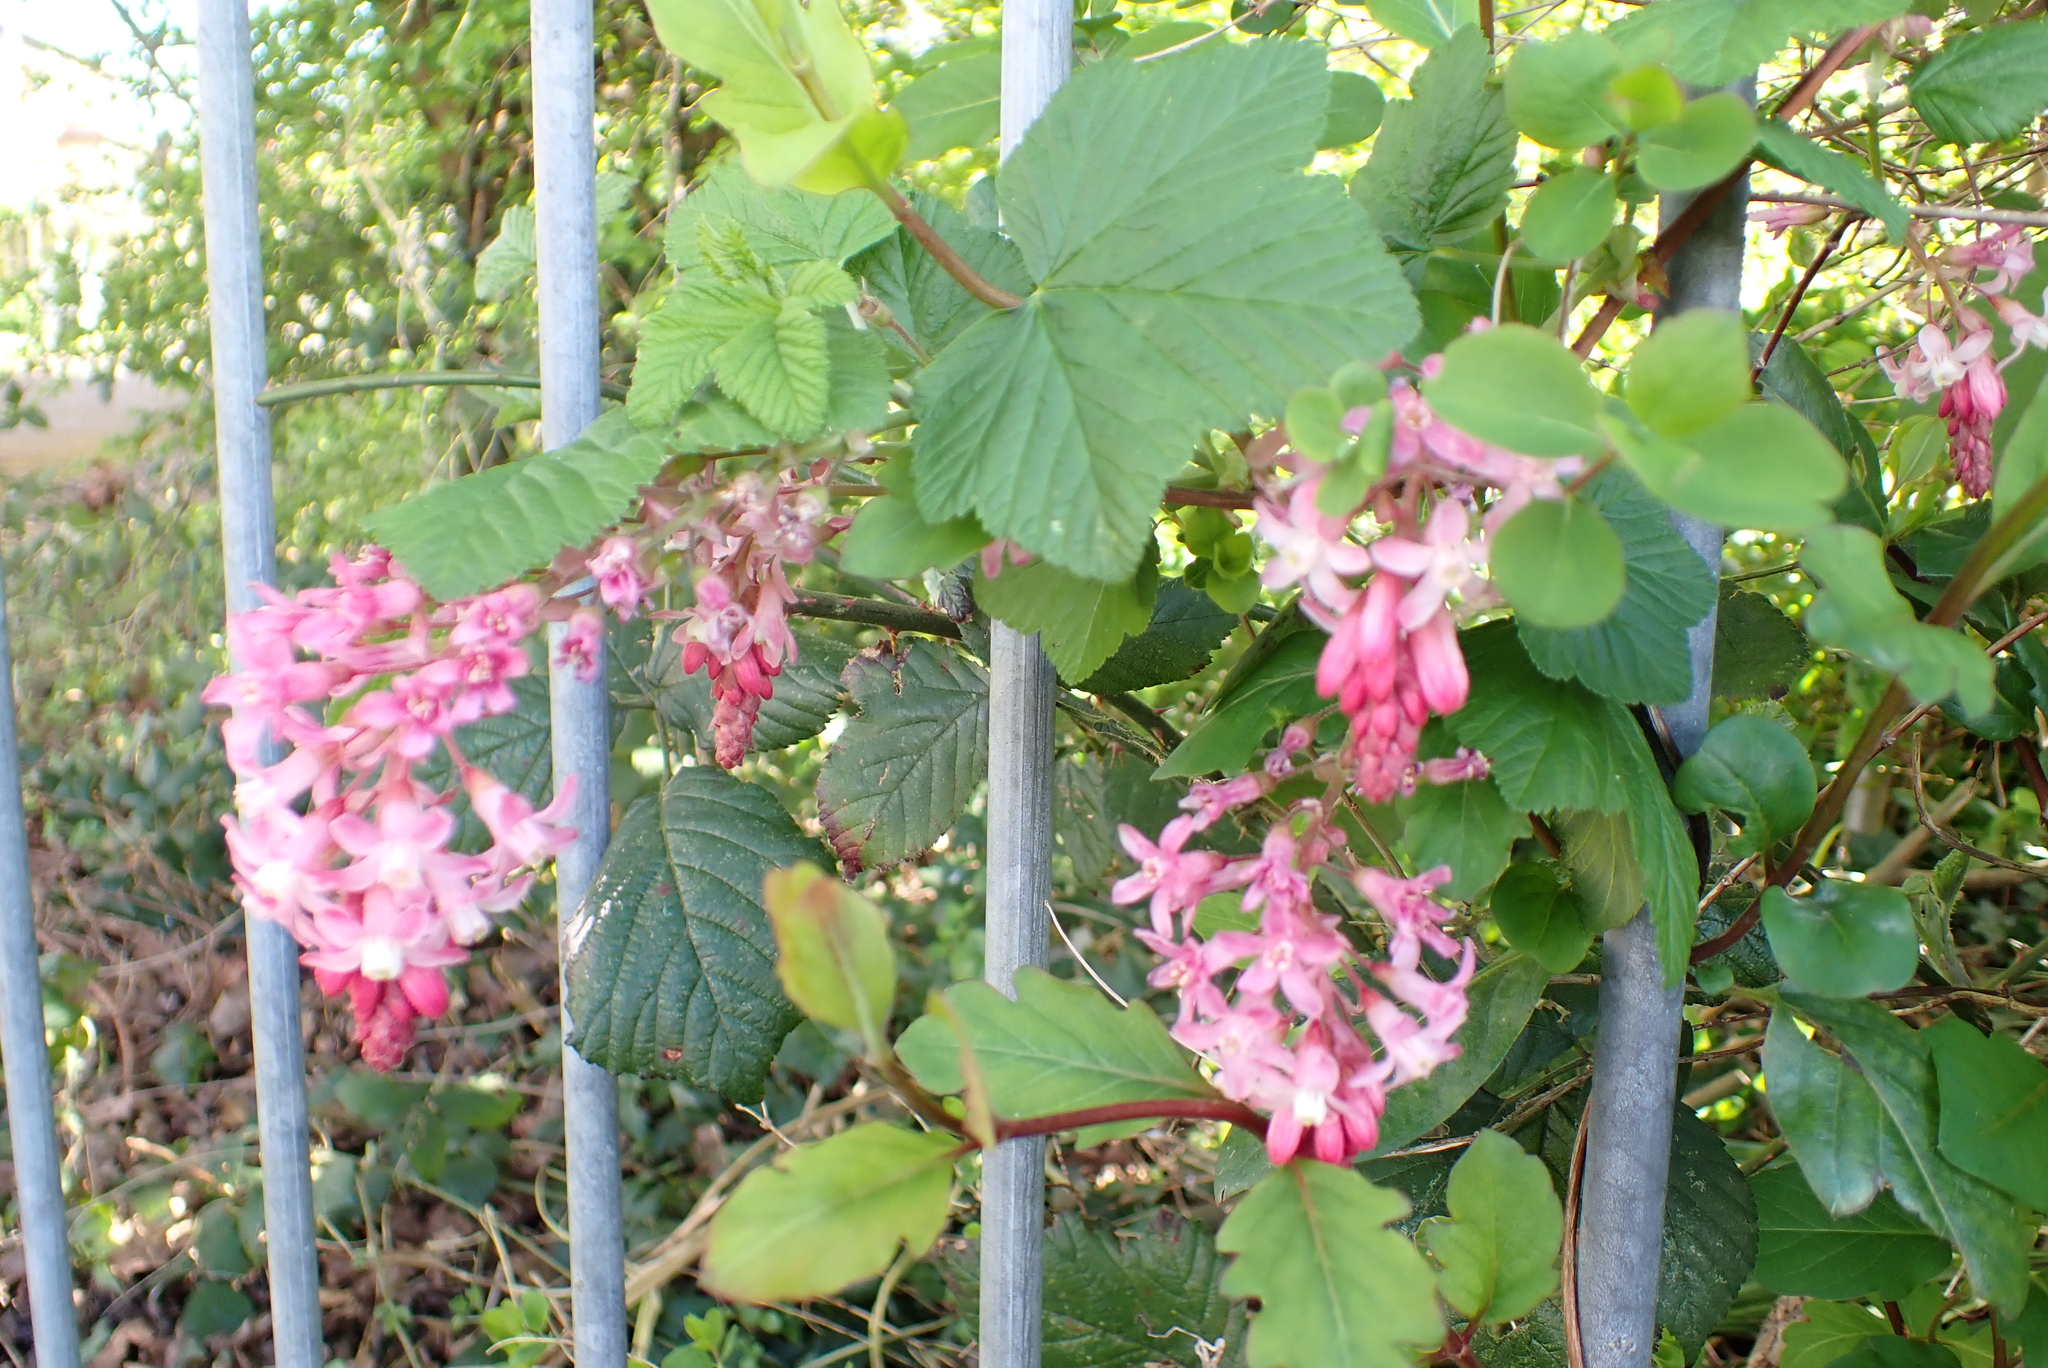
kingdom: Plantae
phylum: Tracheophyta
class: Magnoliopsida
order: Saxifragales
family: Grossulariaceae
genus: Ribes
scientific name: Ribes sanguineum
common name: Flowering currant
